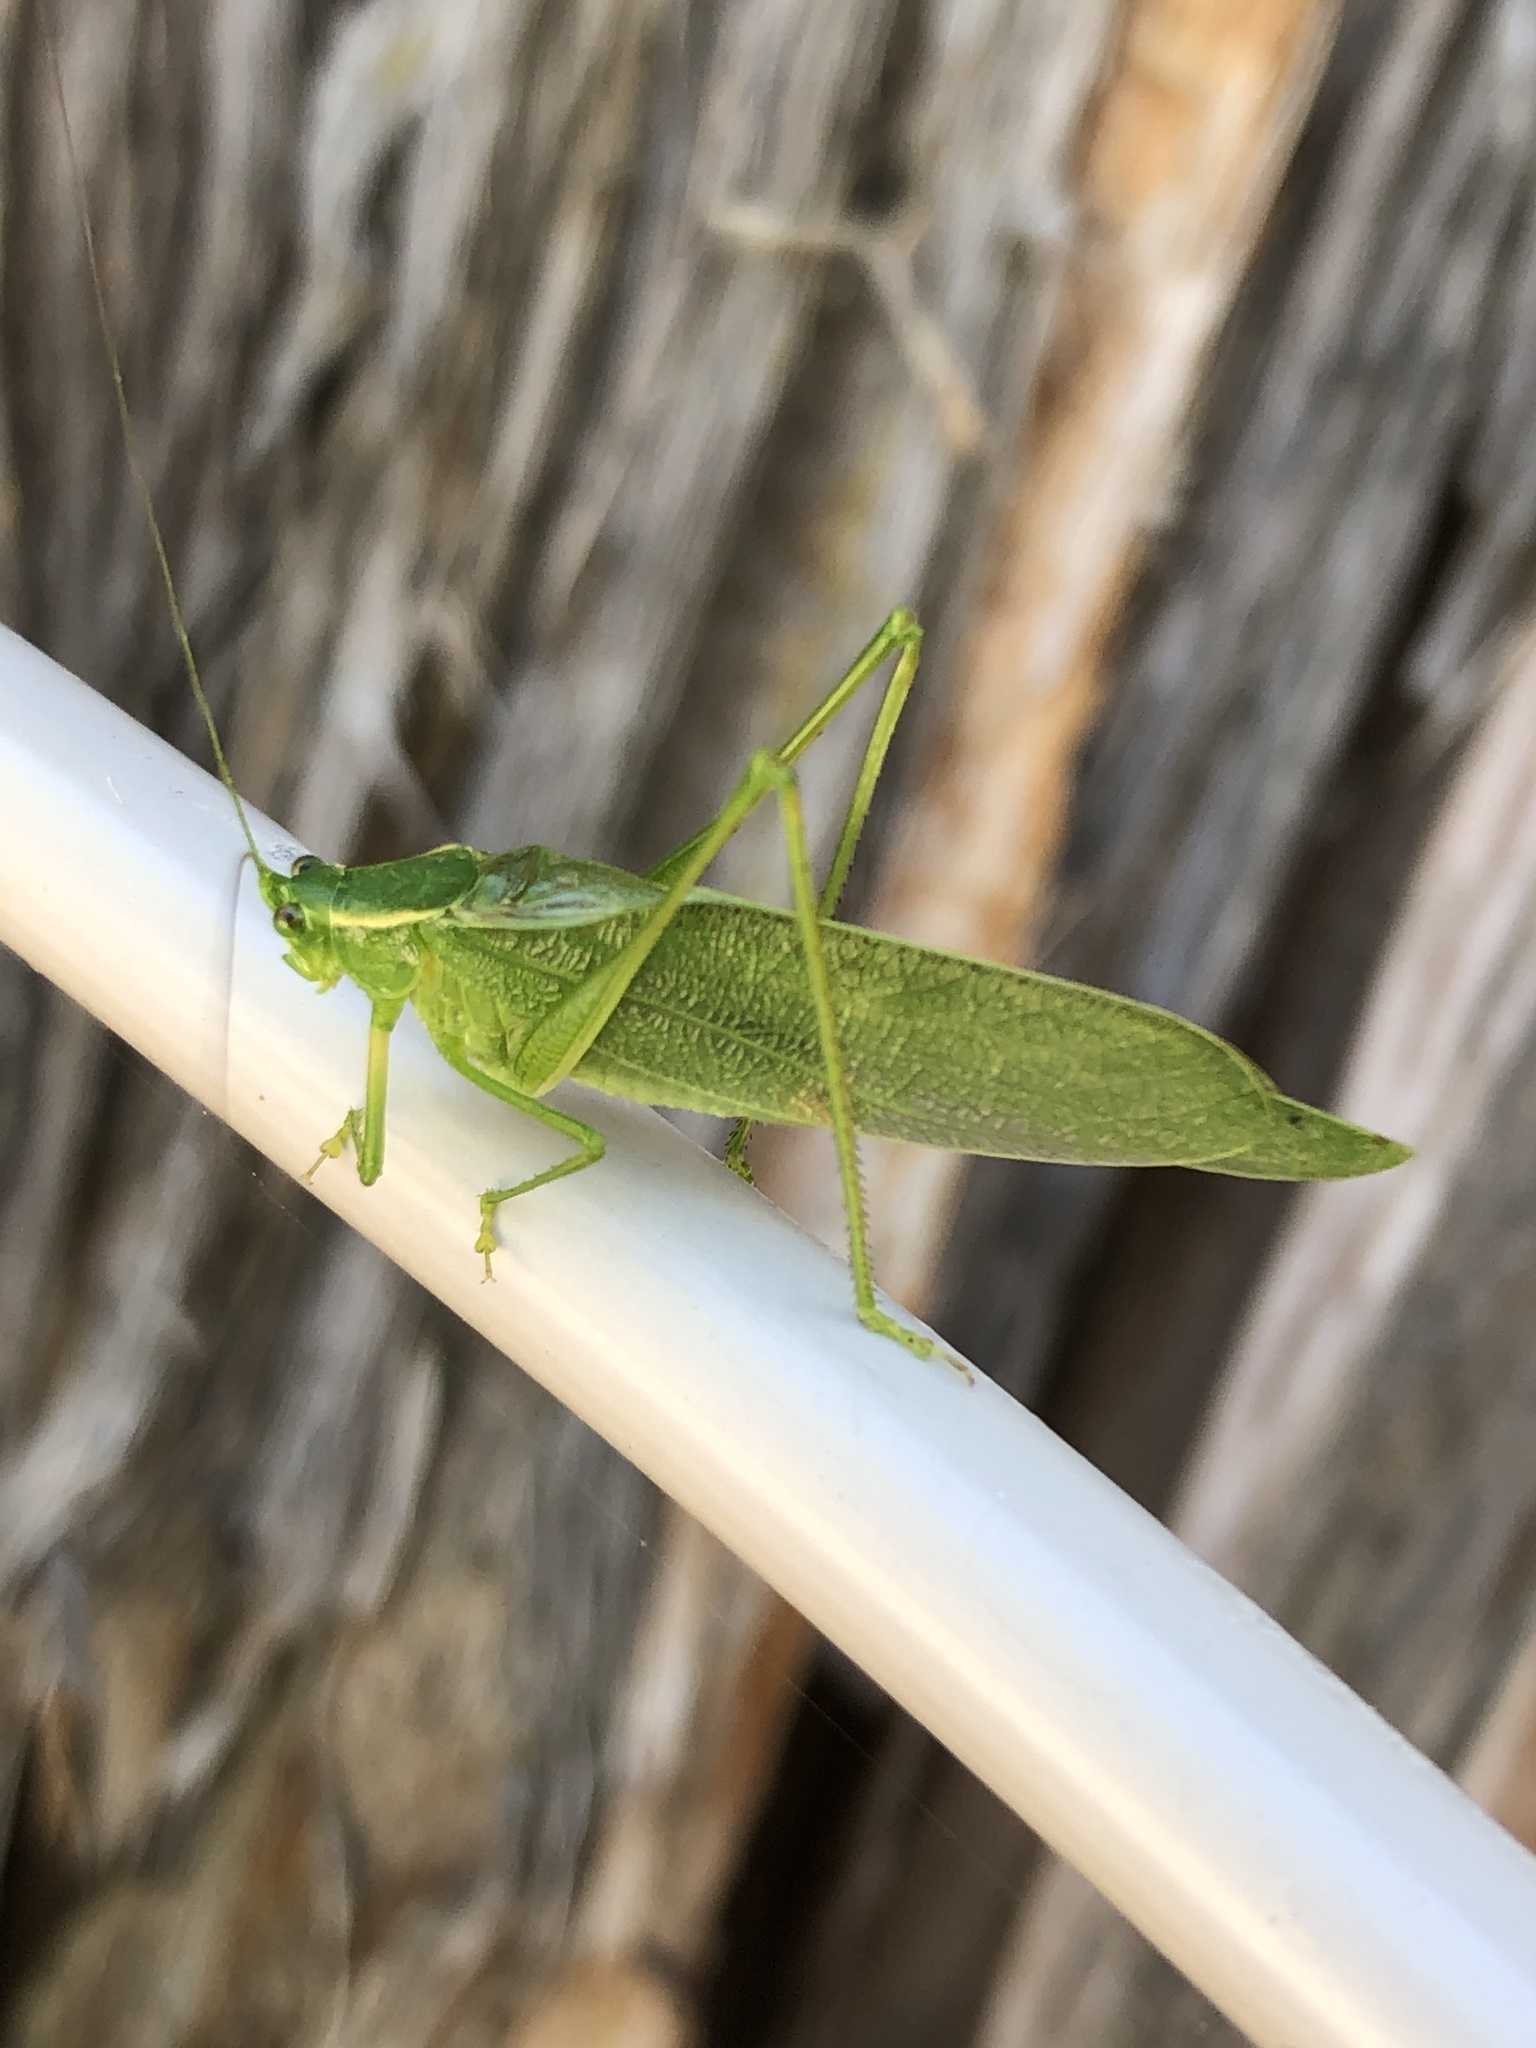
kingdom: Animalia
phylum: Arthropoda
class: Insecta
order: Orthoptera
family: Tettigoniidae
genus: Scudderia
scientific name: Scudderia septentrionalis
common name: Northern bush-katydid
